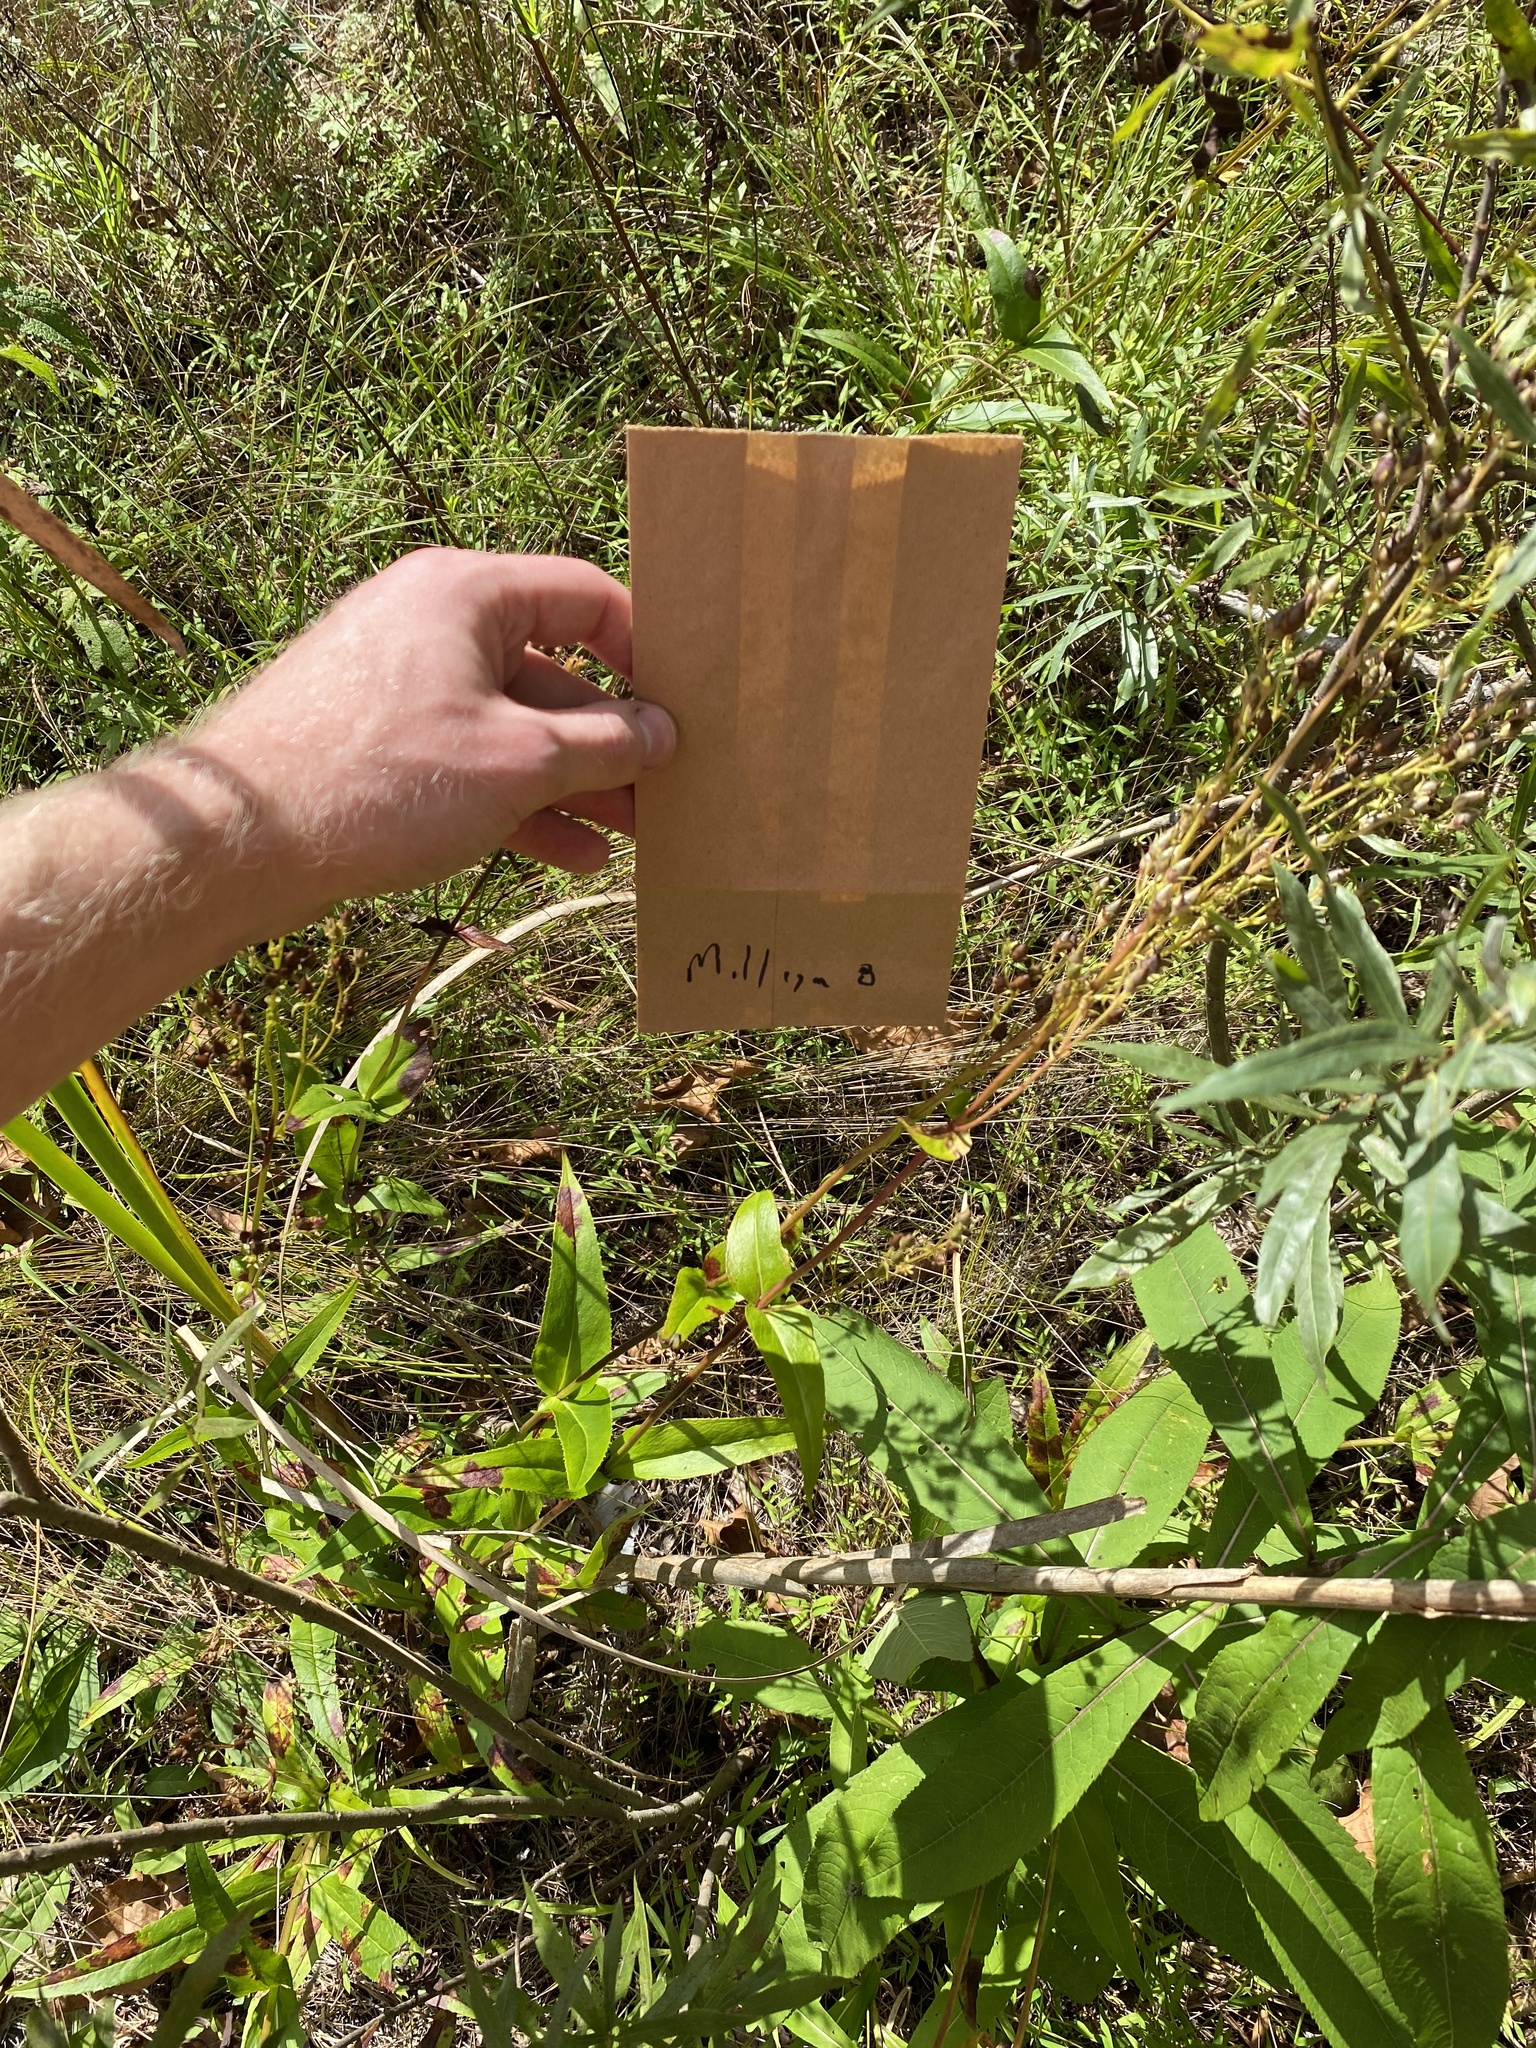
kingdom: Plantae
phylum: Tracheophyta
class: Magnoliopsida
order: Lamiales
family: Plantaginaceae
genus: Penstemon
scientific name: Penstemon digitalis
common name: Foxglove beardtongue
